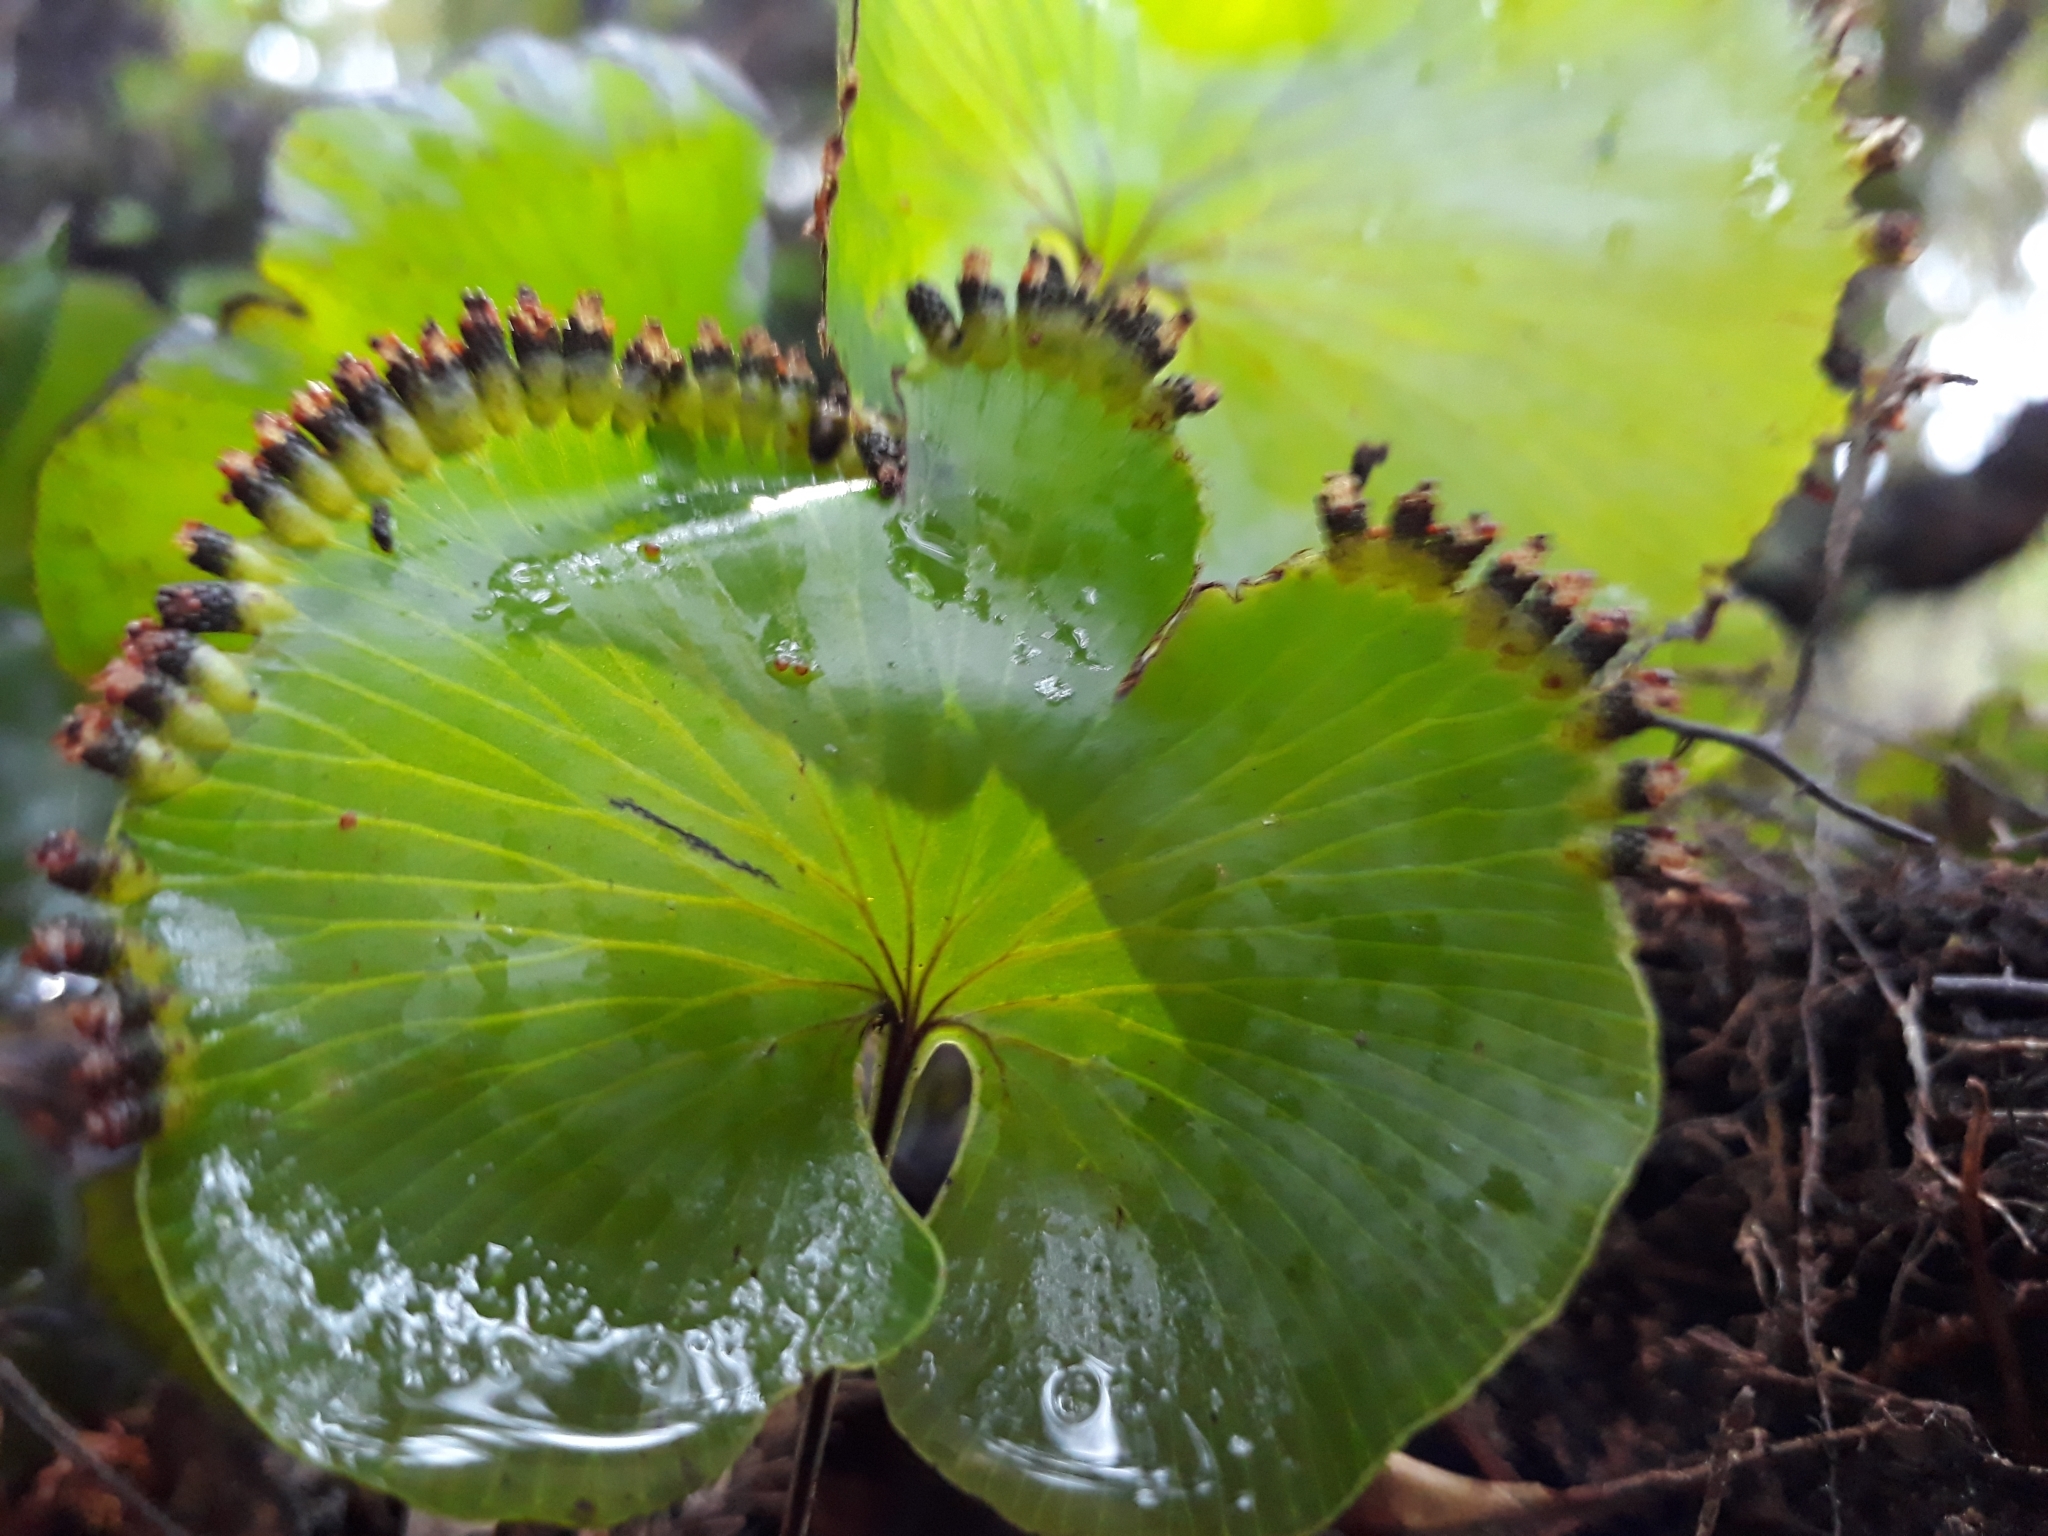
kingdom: Plantae
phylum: Tracheophyta
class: Polypodiopsida
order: Hymenophyllales
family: Hymenophyllaceae
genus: Hymenophyllum
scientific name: Hymenophyllum nephrophyllum
